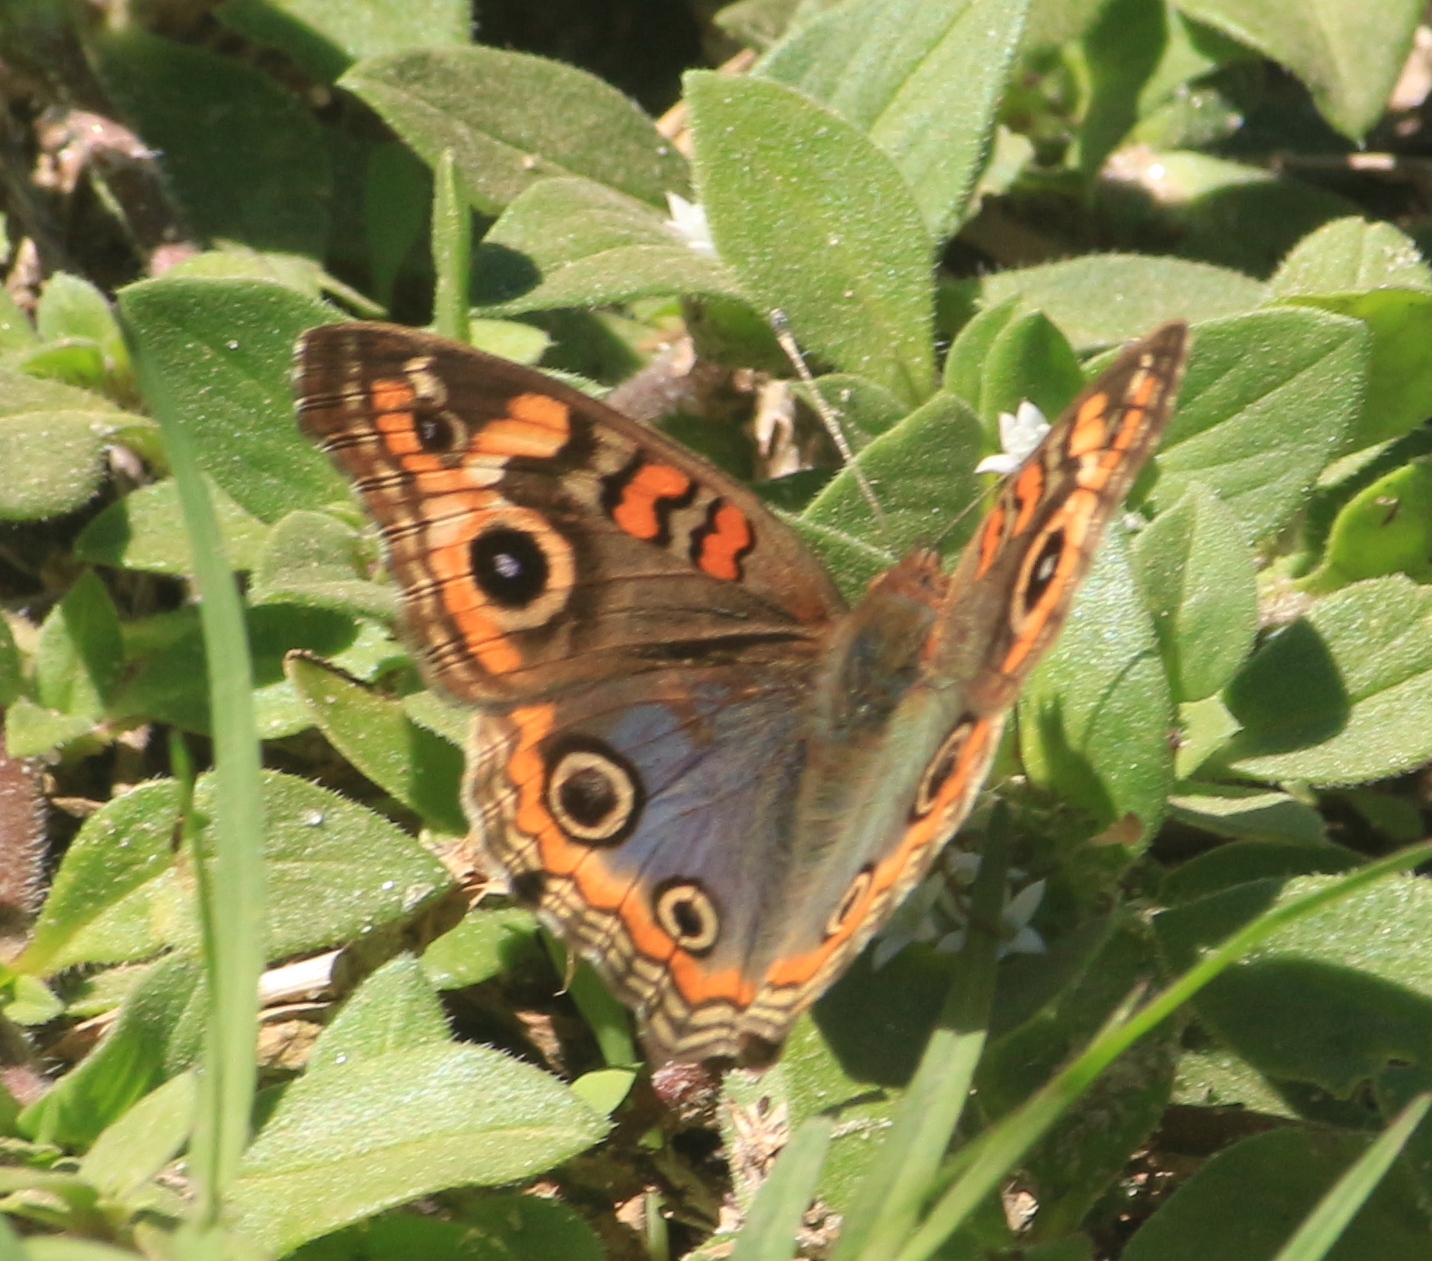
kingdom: Animalia
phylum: Arthropoda
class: Insecta
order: Lepidoptera
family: Nymphalidae
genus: Junonia
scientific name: Junonia lavinia
